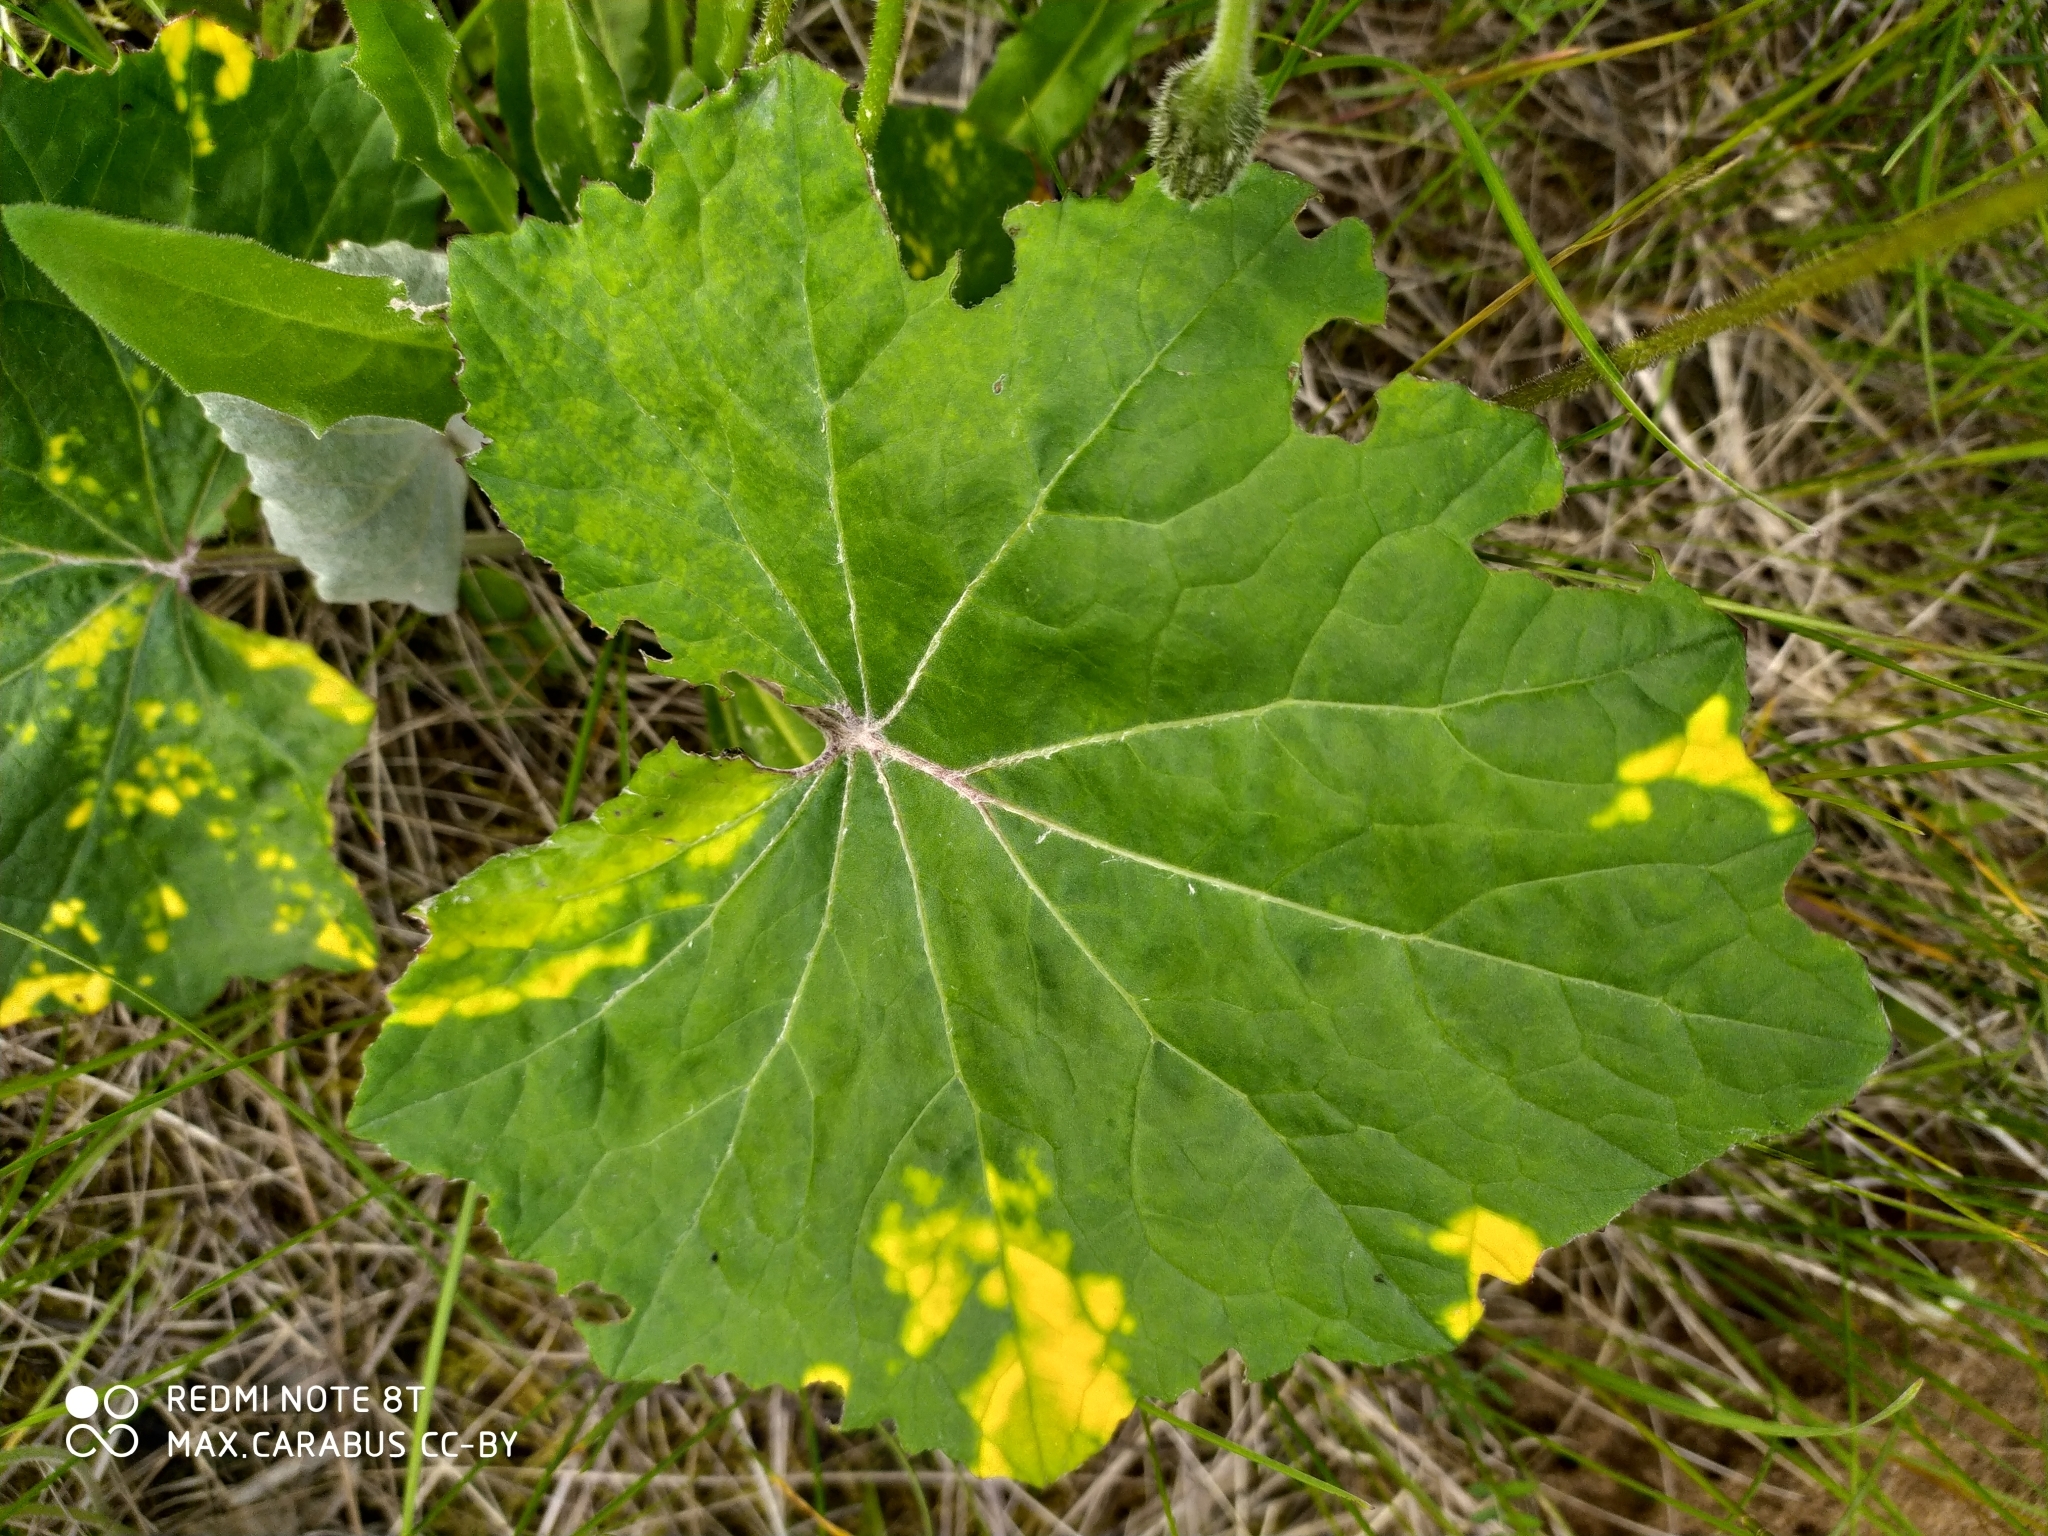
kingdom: Plantae
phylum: Tracheophyta
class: Magnoliopsida
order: Asterales
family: Asteraceae
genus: Tussilago
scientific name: Tussilago farfara
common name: Coltsfoot
